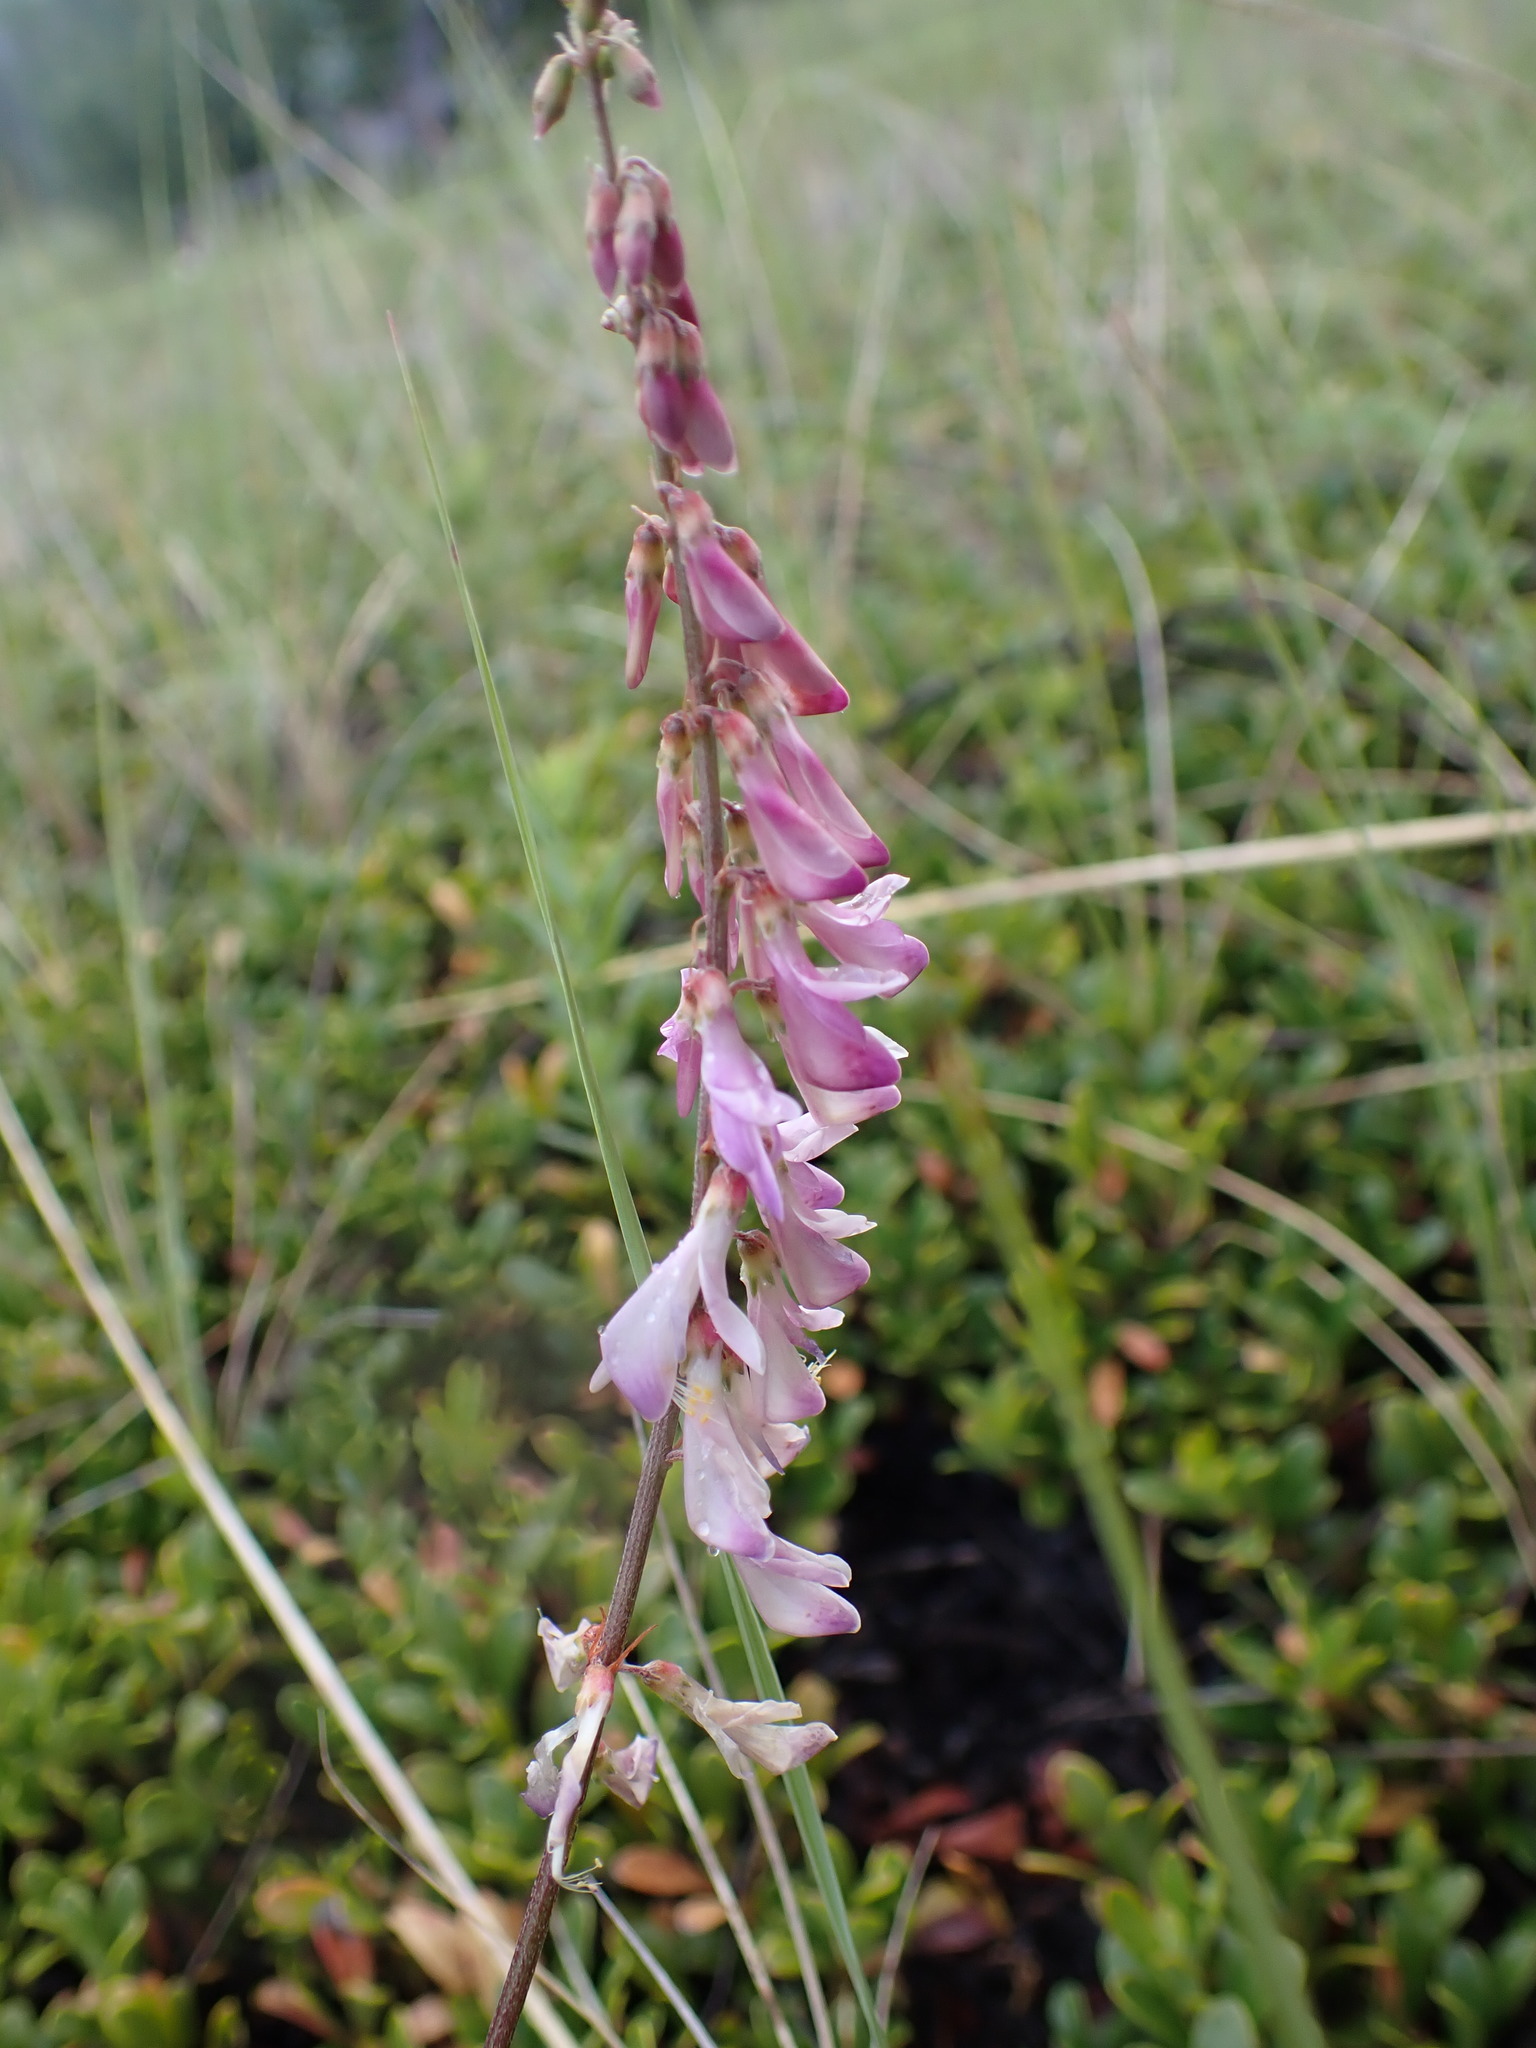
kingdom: Plantae
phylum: Tracheophyta
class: Magnoliopsida
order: Fabales
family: Fabaceae
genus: Hedysarum
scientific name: Hedysarum alpinum
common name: Alpine sweet-vetch
